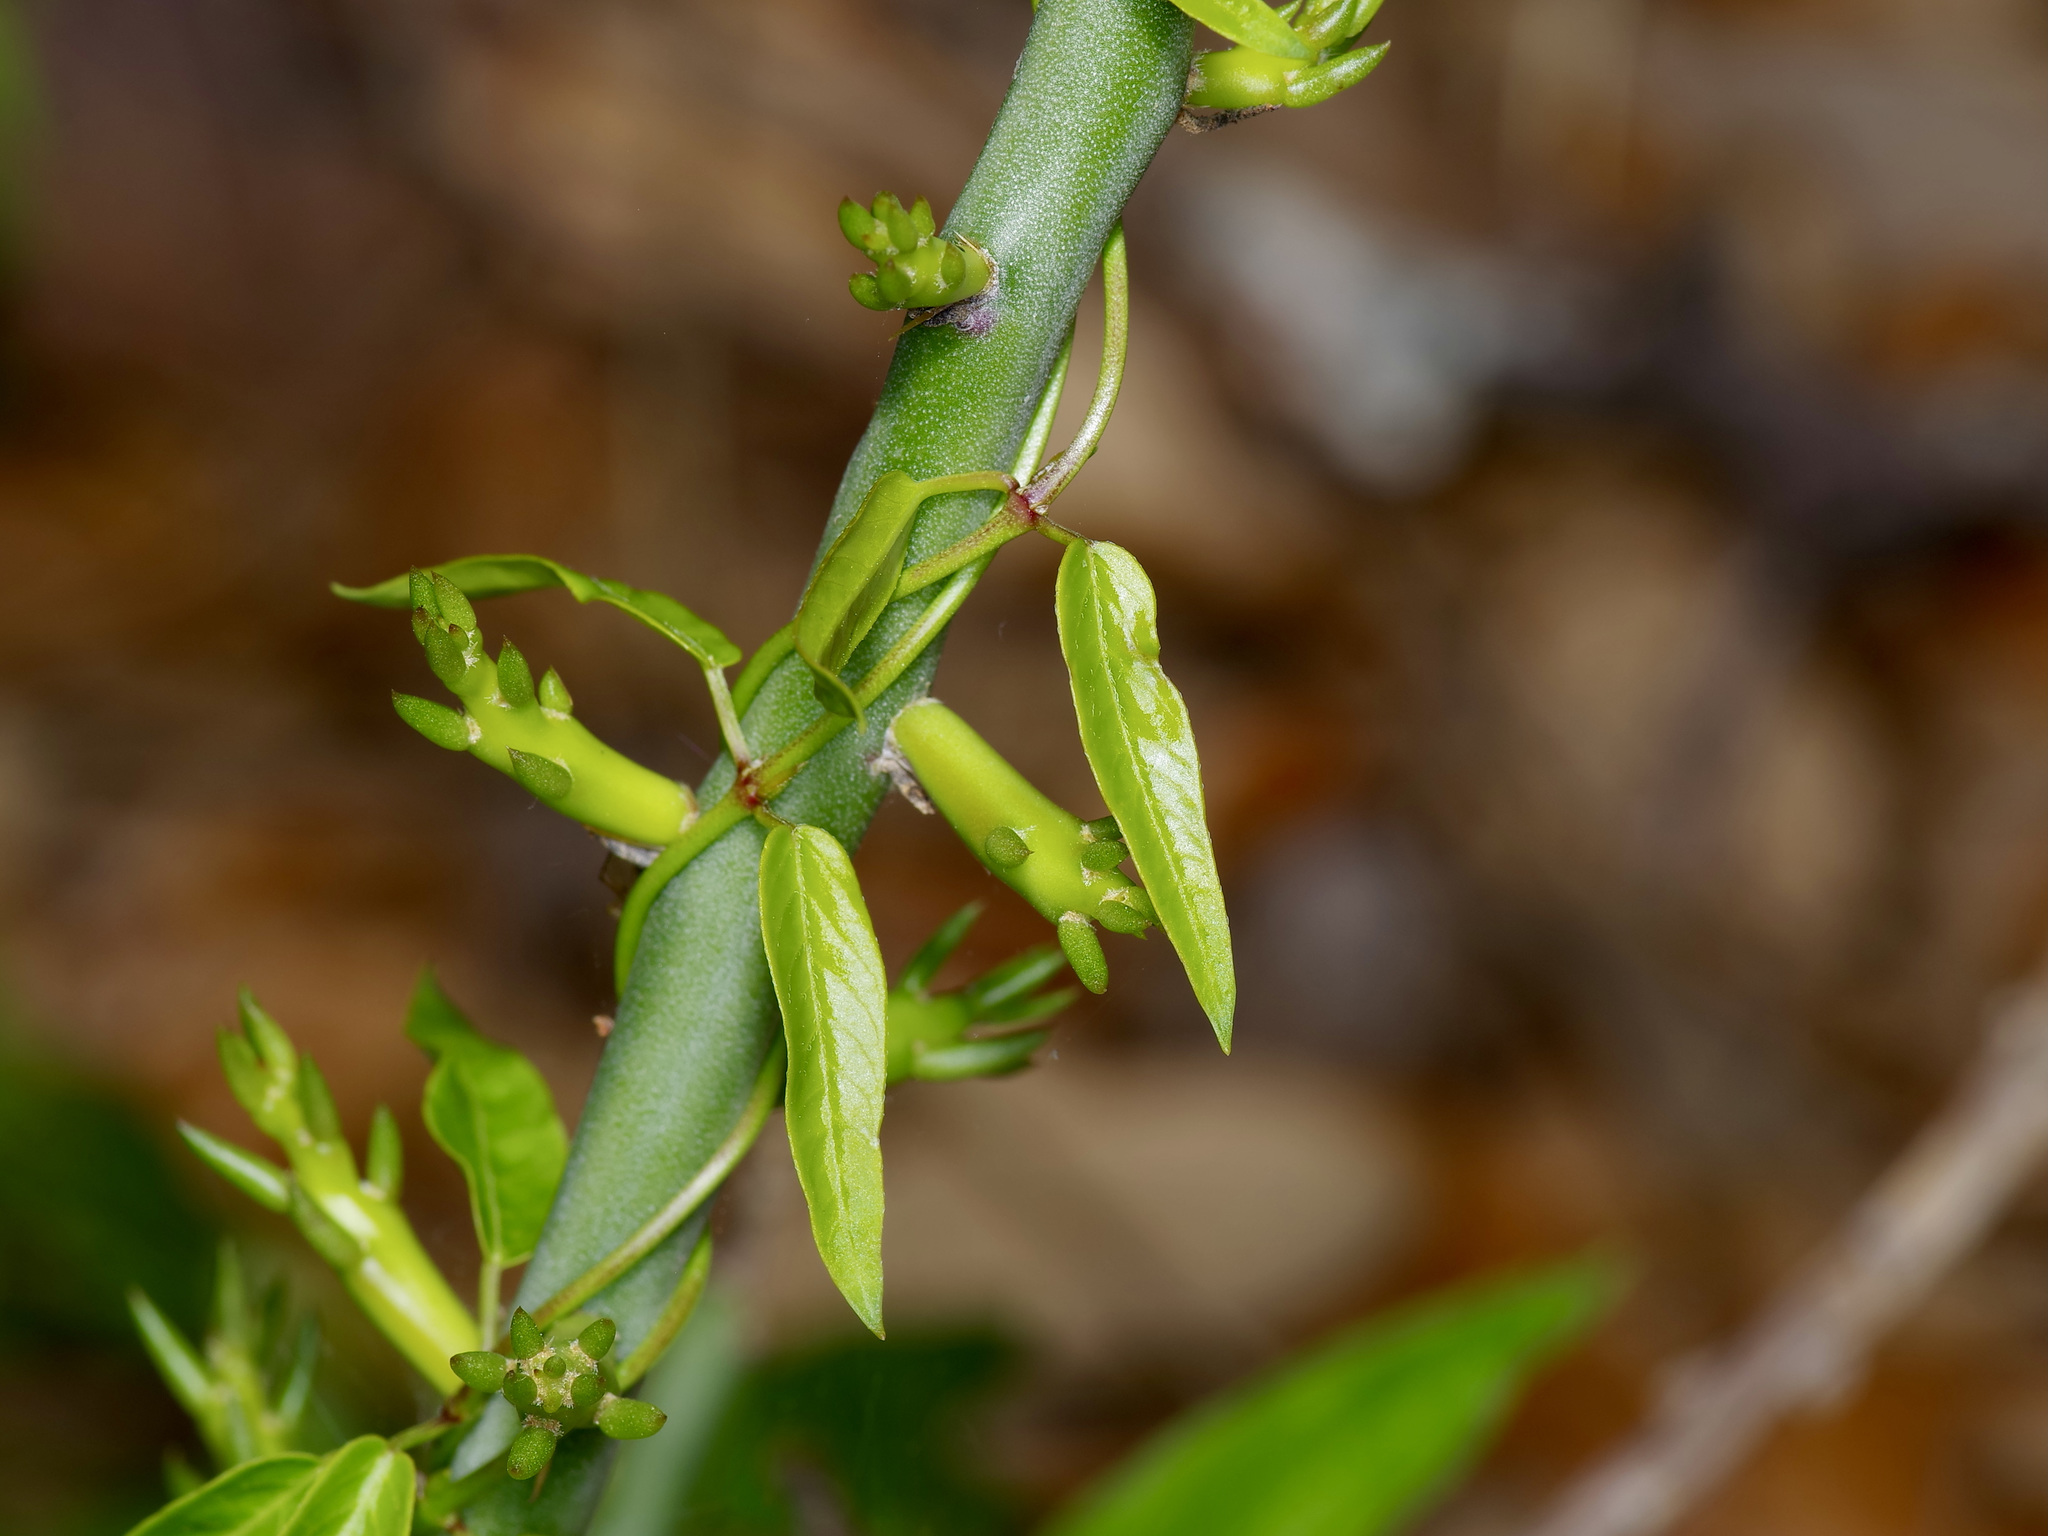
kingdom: Plantae
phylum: Tracheophyta
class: Magnoliopsida
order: Gentianales
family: Apocynaceae
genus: Metastelma
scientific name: Metastelma barbigerum
